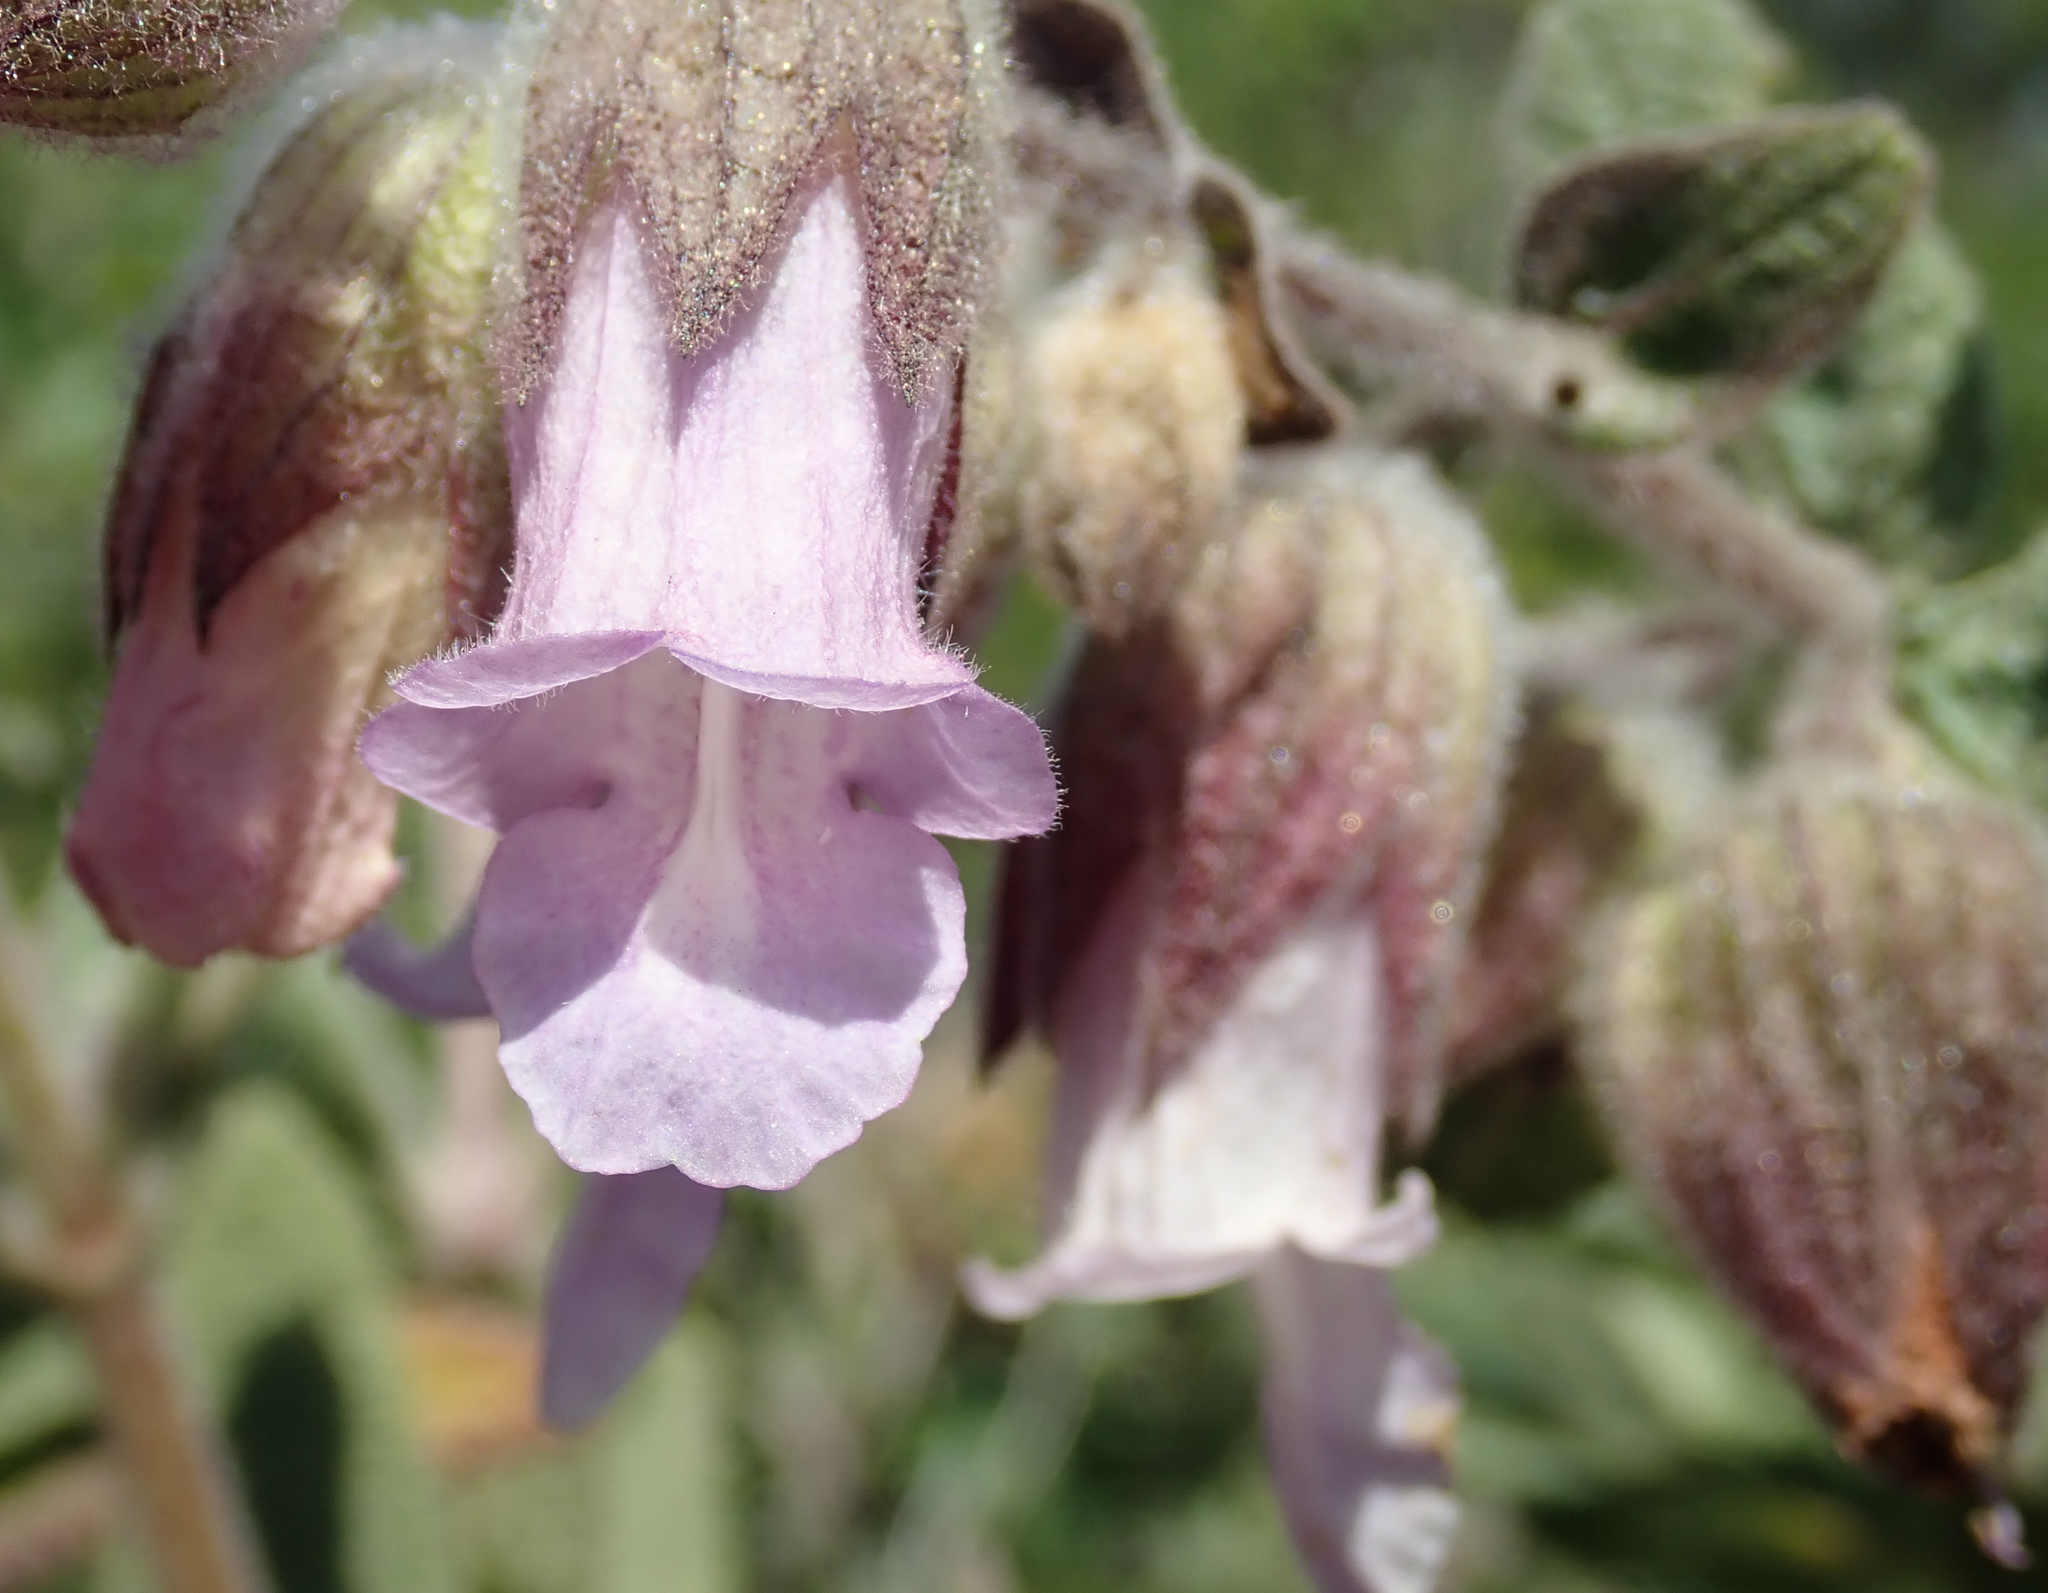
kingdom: Plantae
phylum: Tracheophyta
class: Magnoliopsida
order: Lamiales
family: Lamiaceae
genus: Lepechinia
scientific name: Lepechinia calycina
